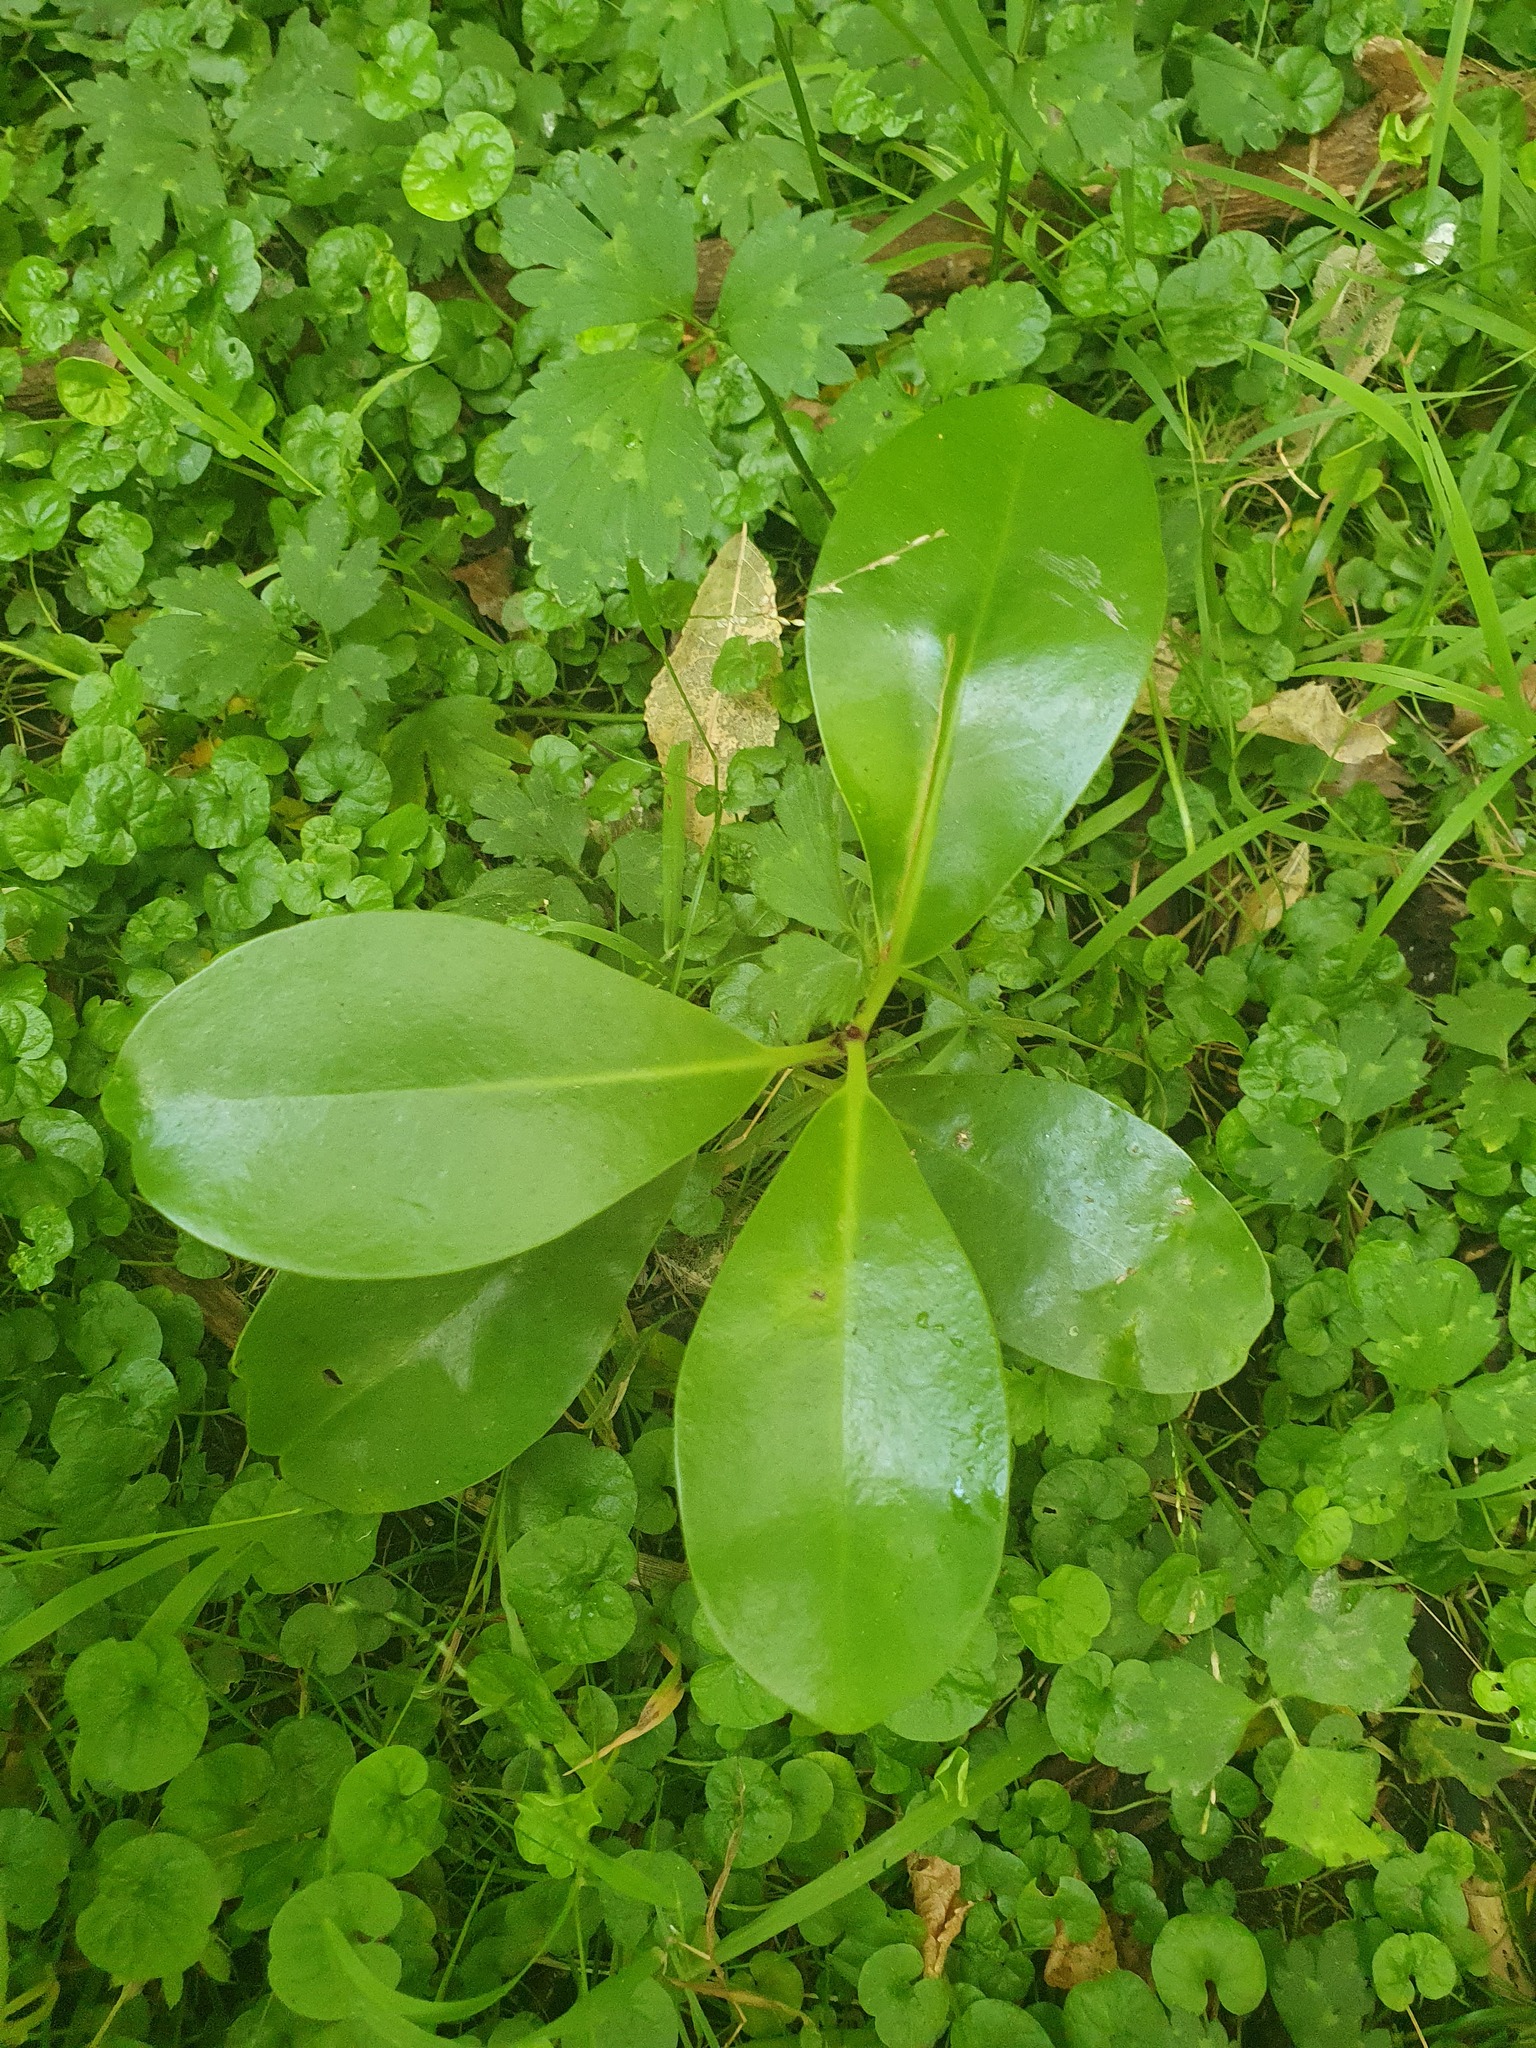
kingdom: Plantae
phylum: Tracheophyta
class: Magnoliopsida
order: Cucurbitales
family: Corynocarpaceae
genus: Corynocarpus
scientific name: Corynocarpus laevigatus
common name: New zealand laurel
